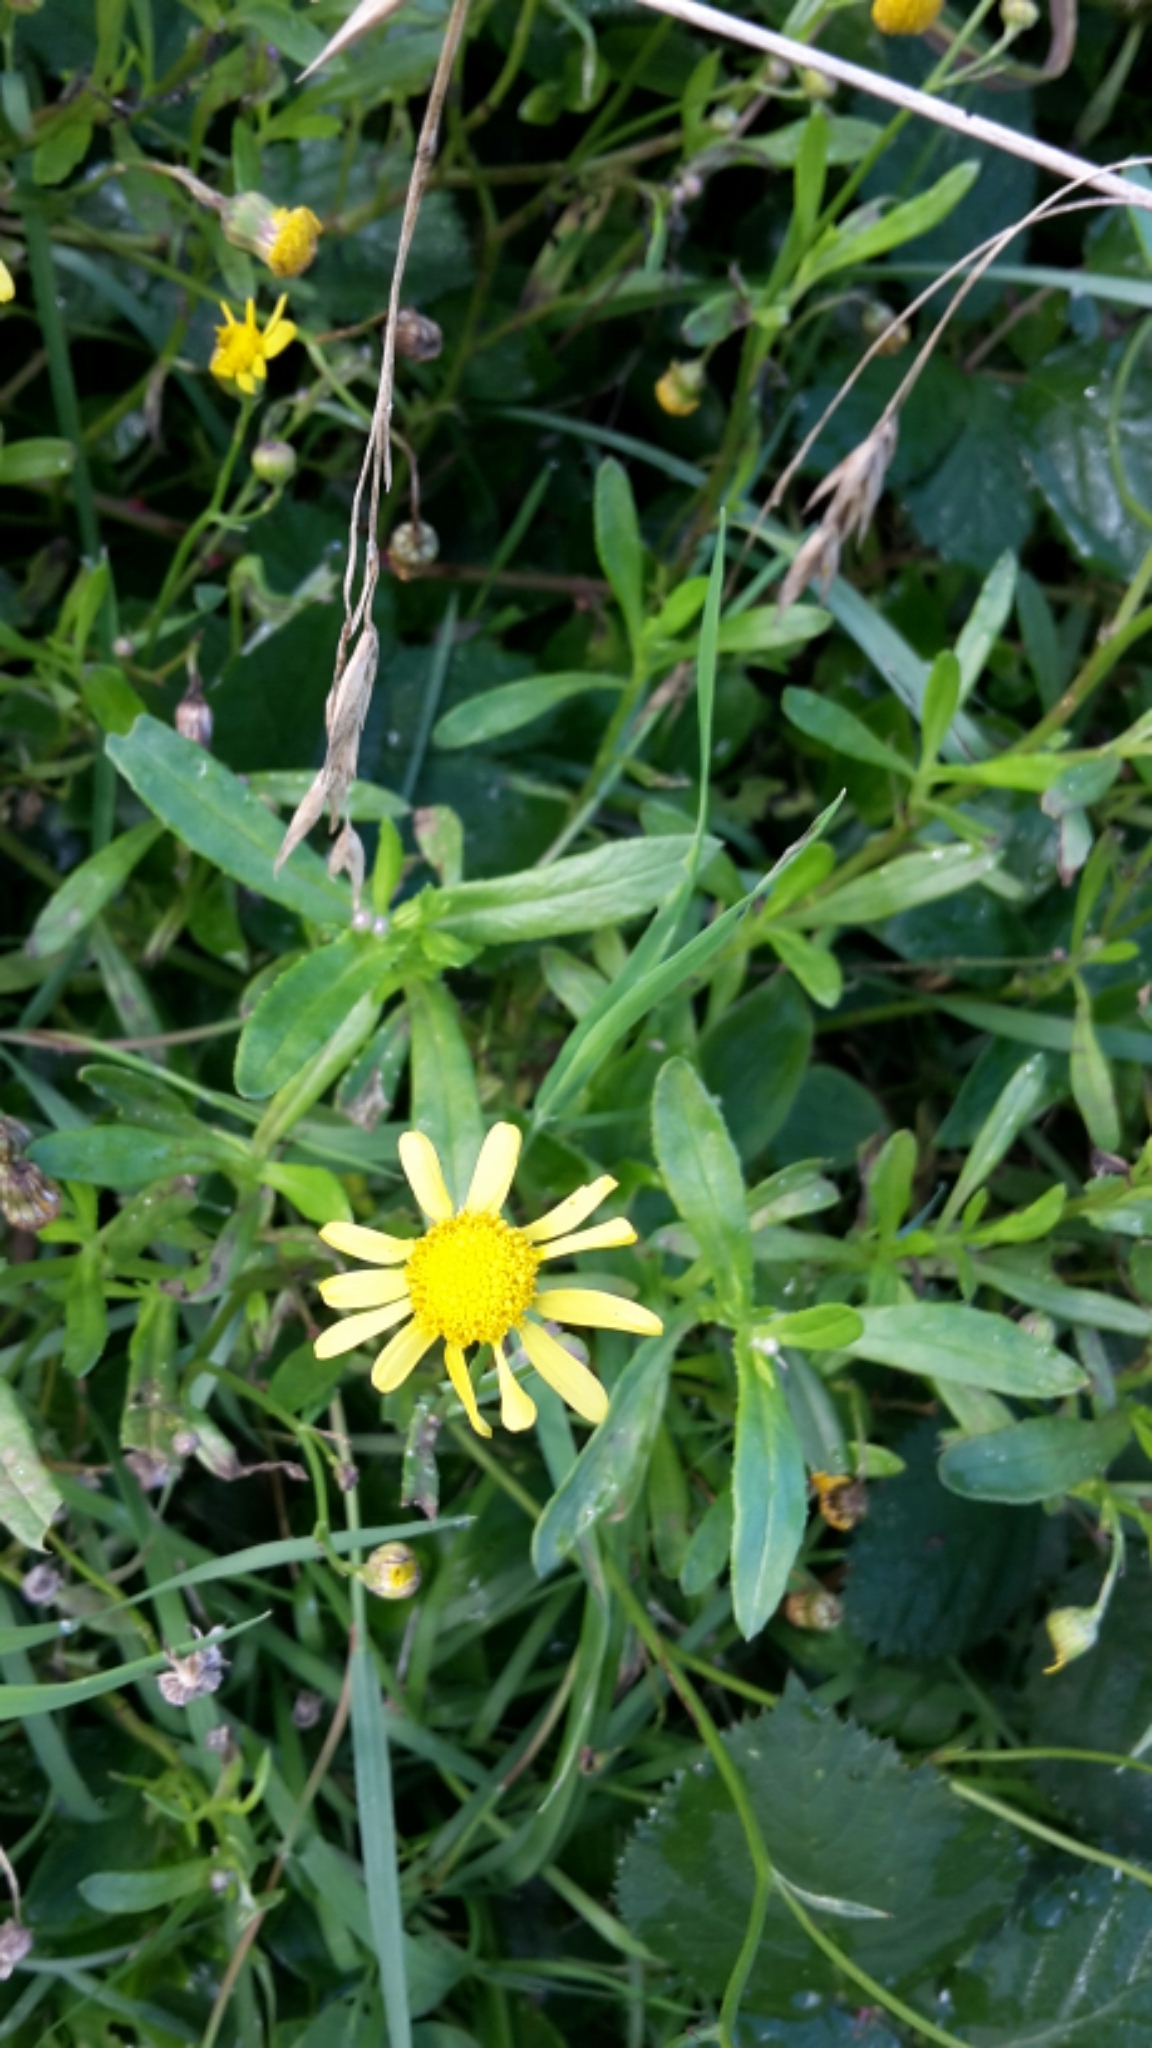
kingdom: Plantae
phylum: Tracheophyta
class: Magnoliopsida
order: Asterales
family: Asteraceae
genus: Senecio
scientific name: Senecio skirrhodon
